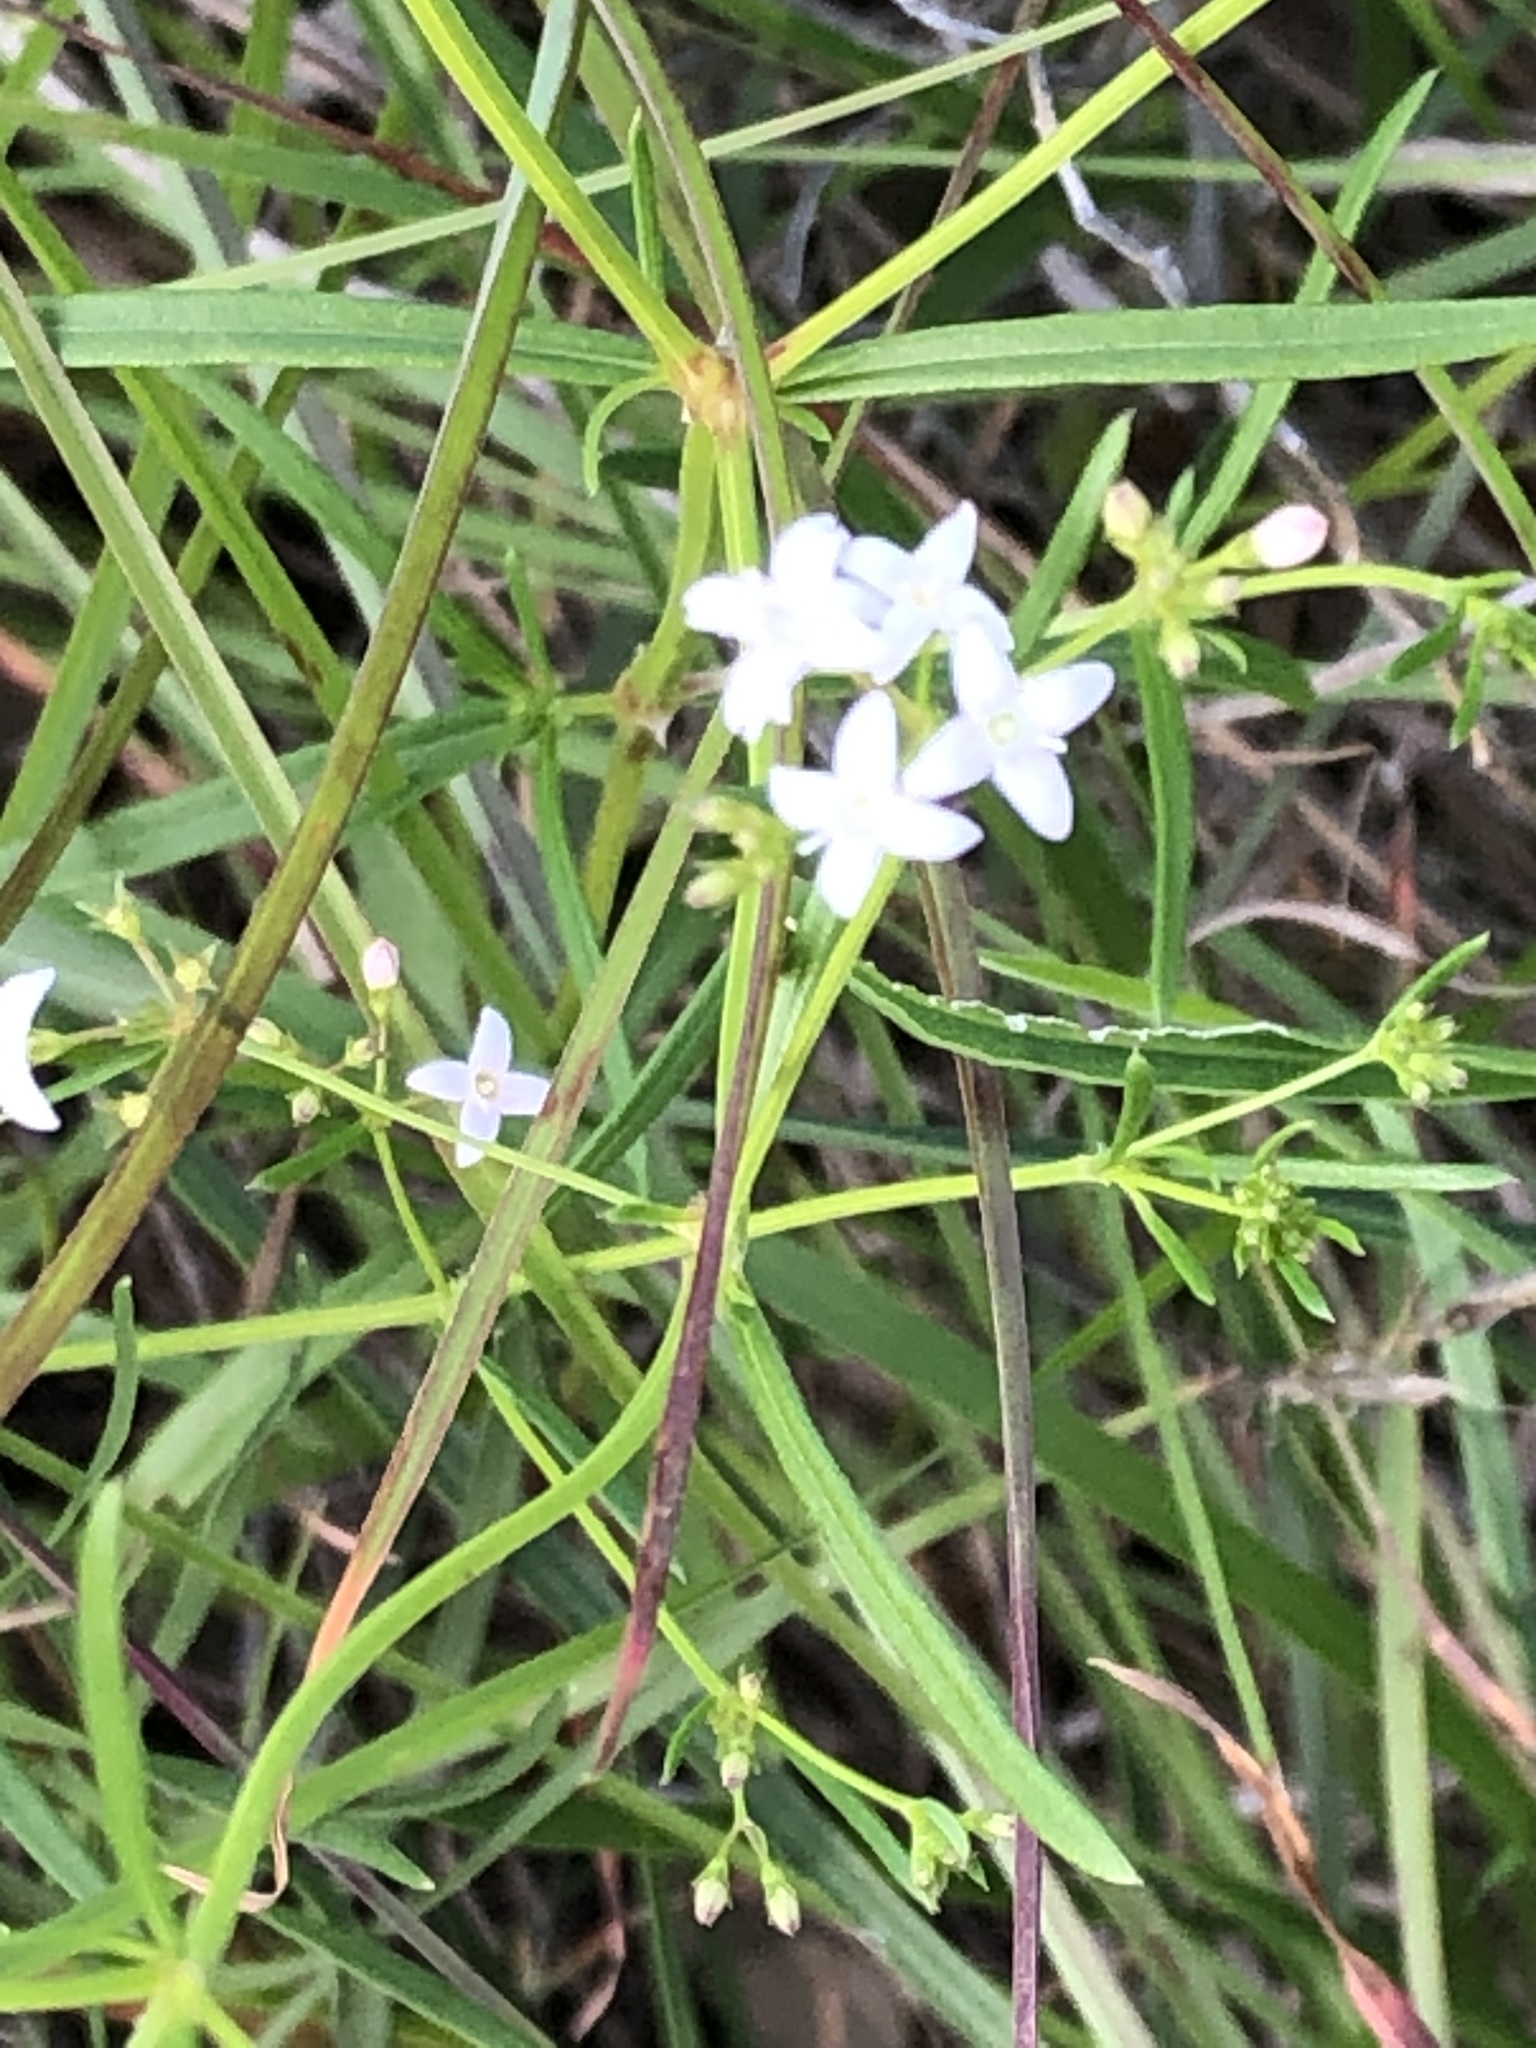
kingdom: Plantae
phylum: Tracheophyta
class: Magnoliopsida
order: Gentianales
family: Rubiaceae
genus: Stenaria
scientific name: Stenaria nigricans
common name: Diamondflowers
